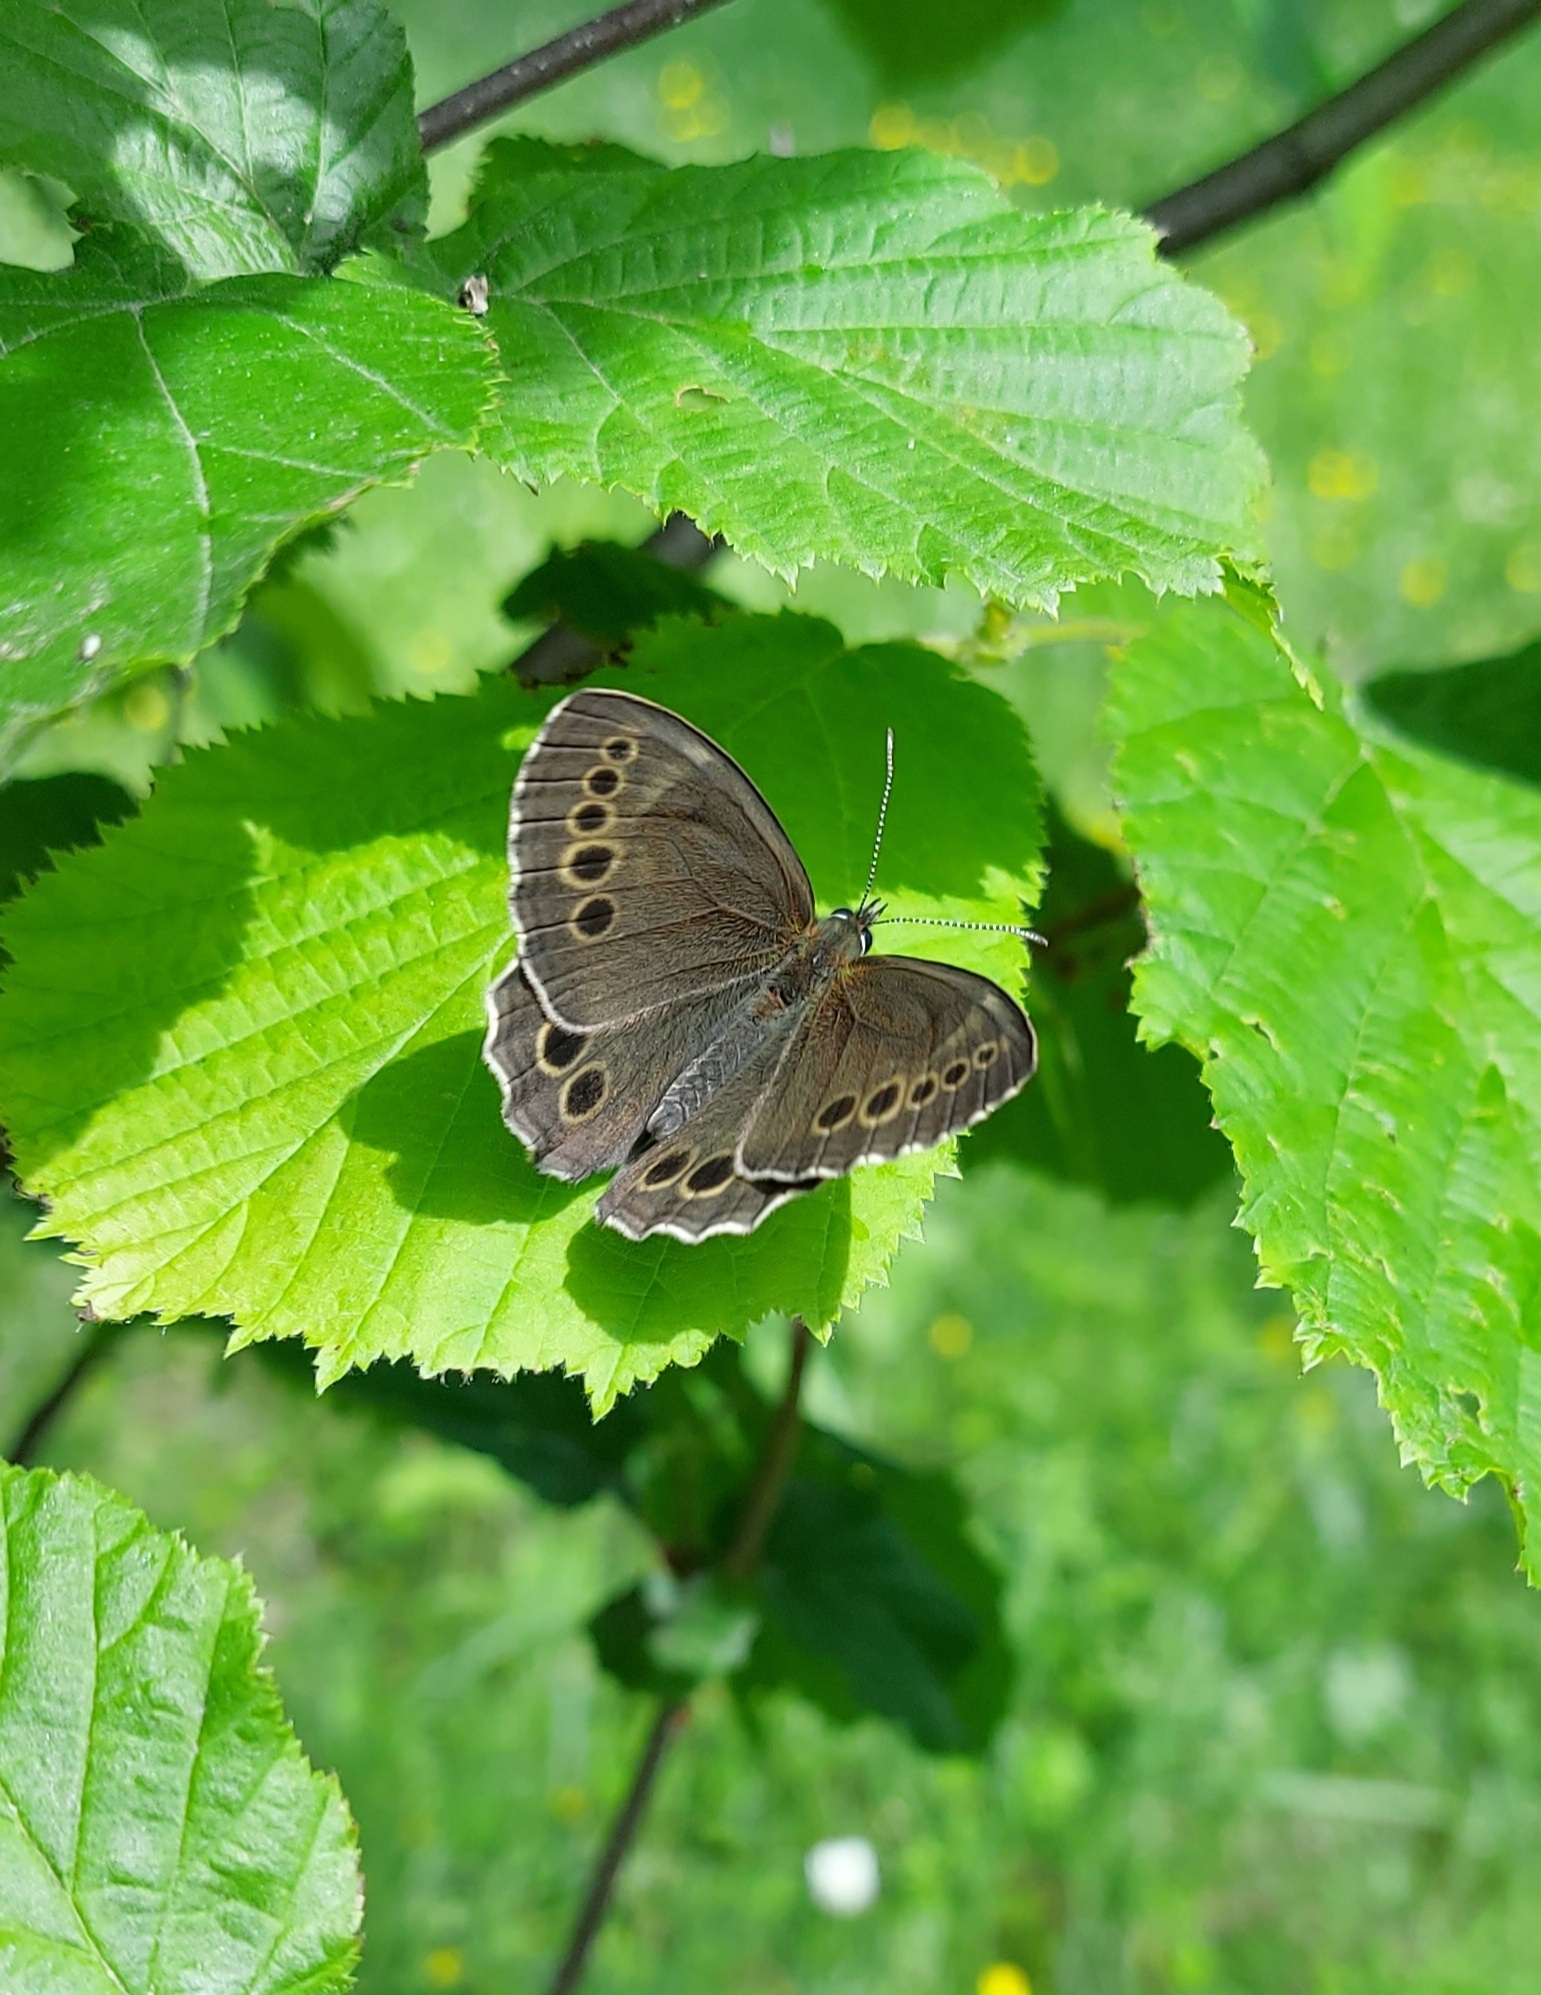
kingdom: Animalia
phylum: Arthropoda
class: Insecta
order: Lepidoptera
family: Nymphalidae
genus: Pararge
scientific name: Pararge Lopinga achine
